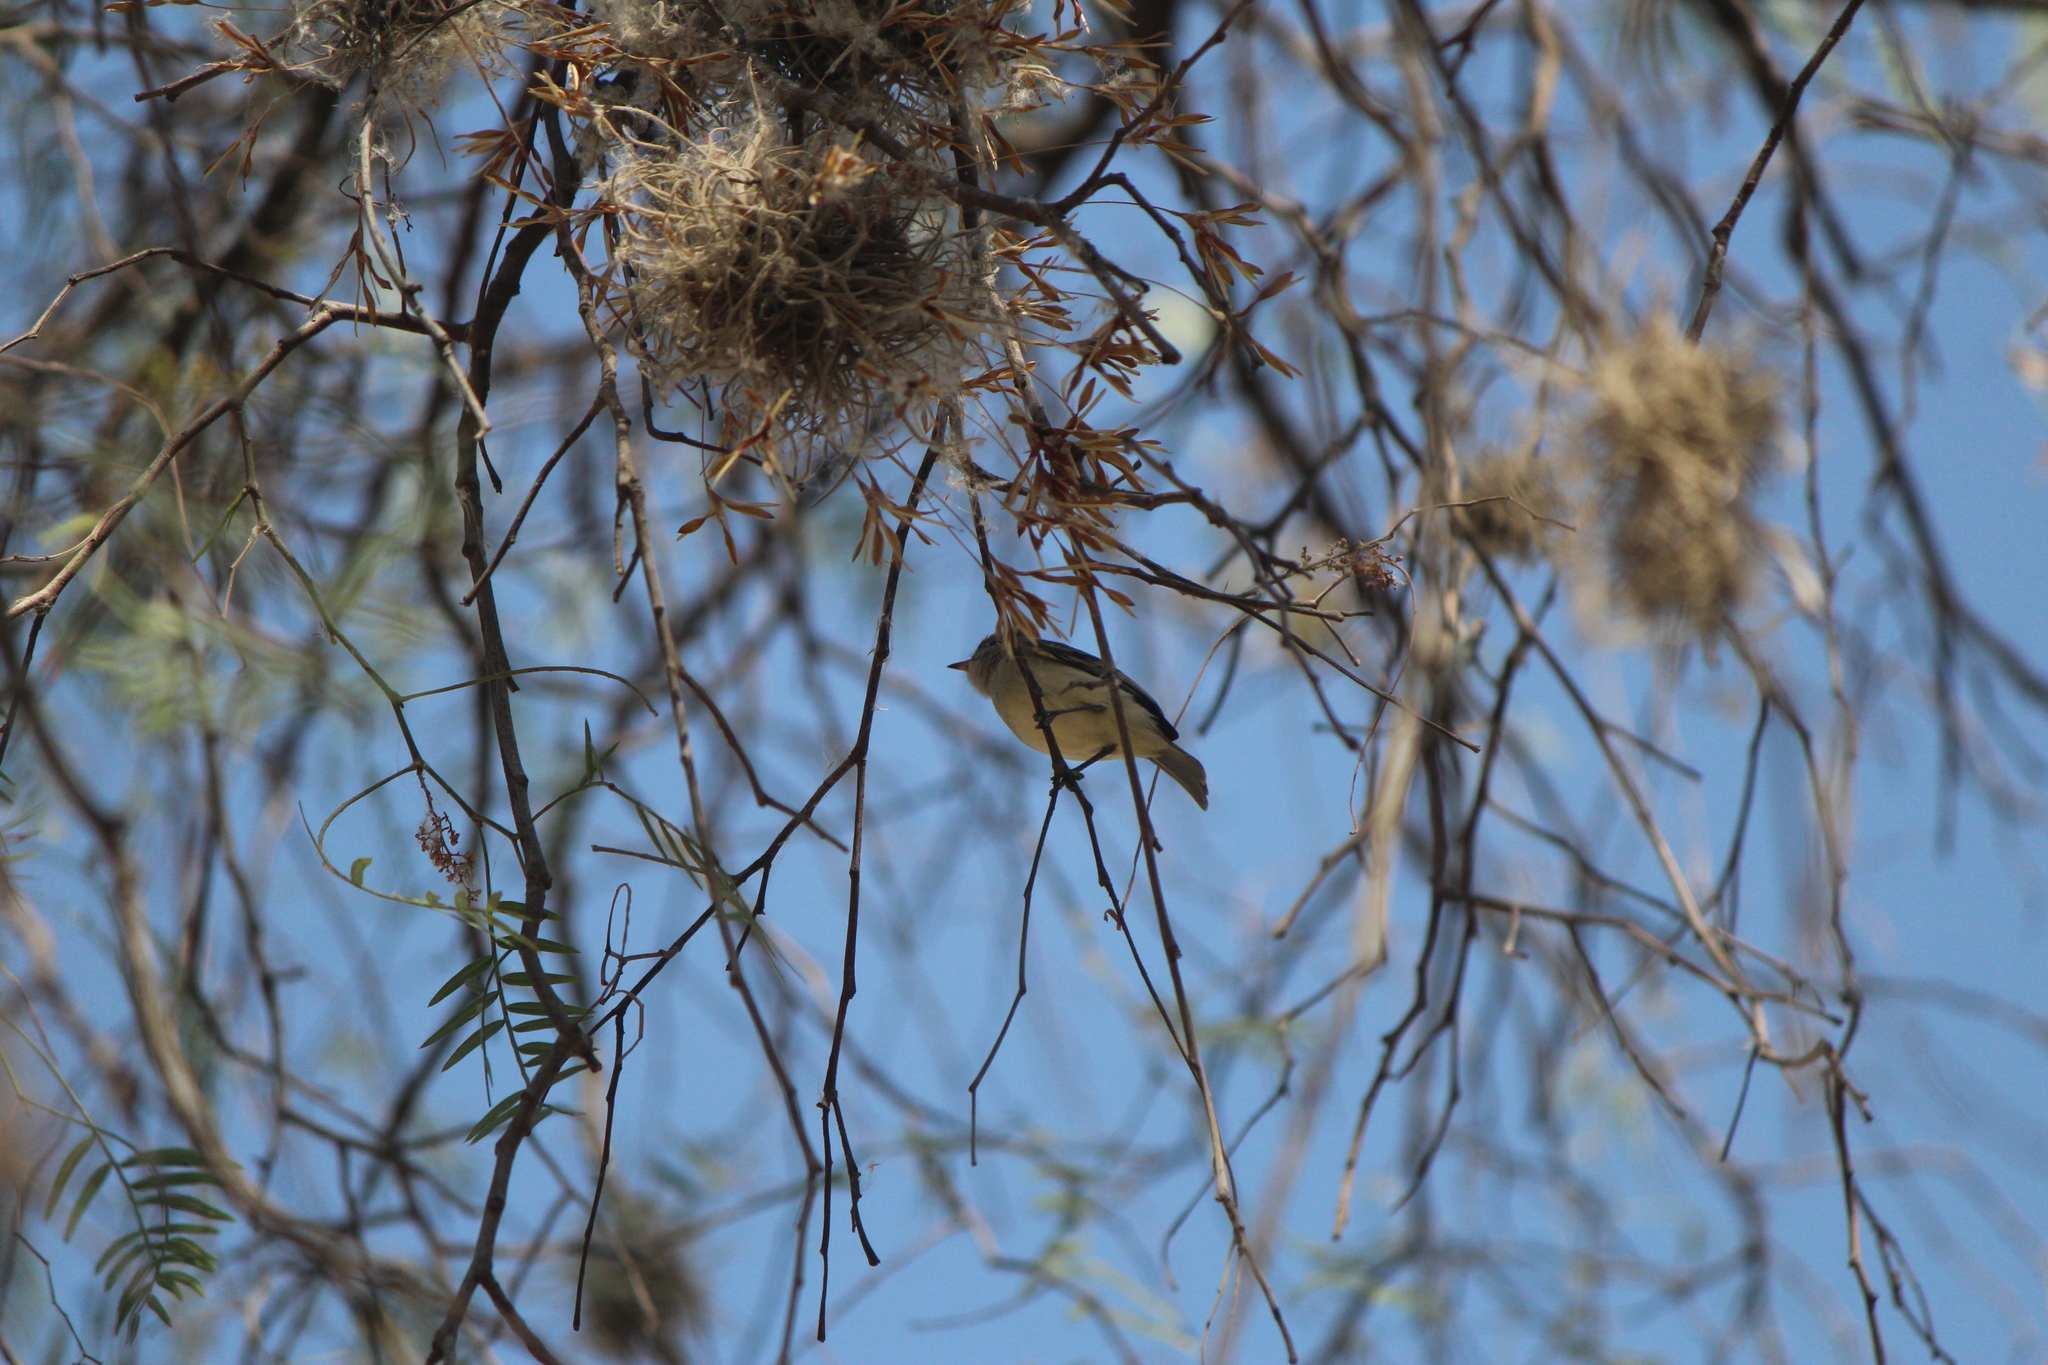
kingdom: Animalia
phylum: Chordata
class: Aves
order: Passeriformes
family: Tyrannidae
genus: Camptostoma
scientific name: Camptostoma imberbe
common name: Northern beardless-tyrannulet
